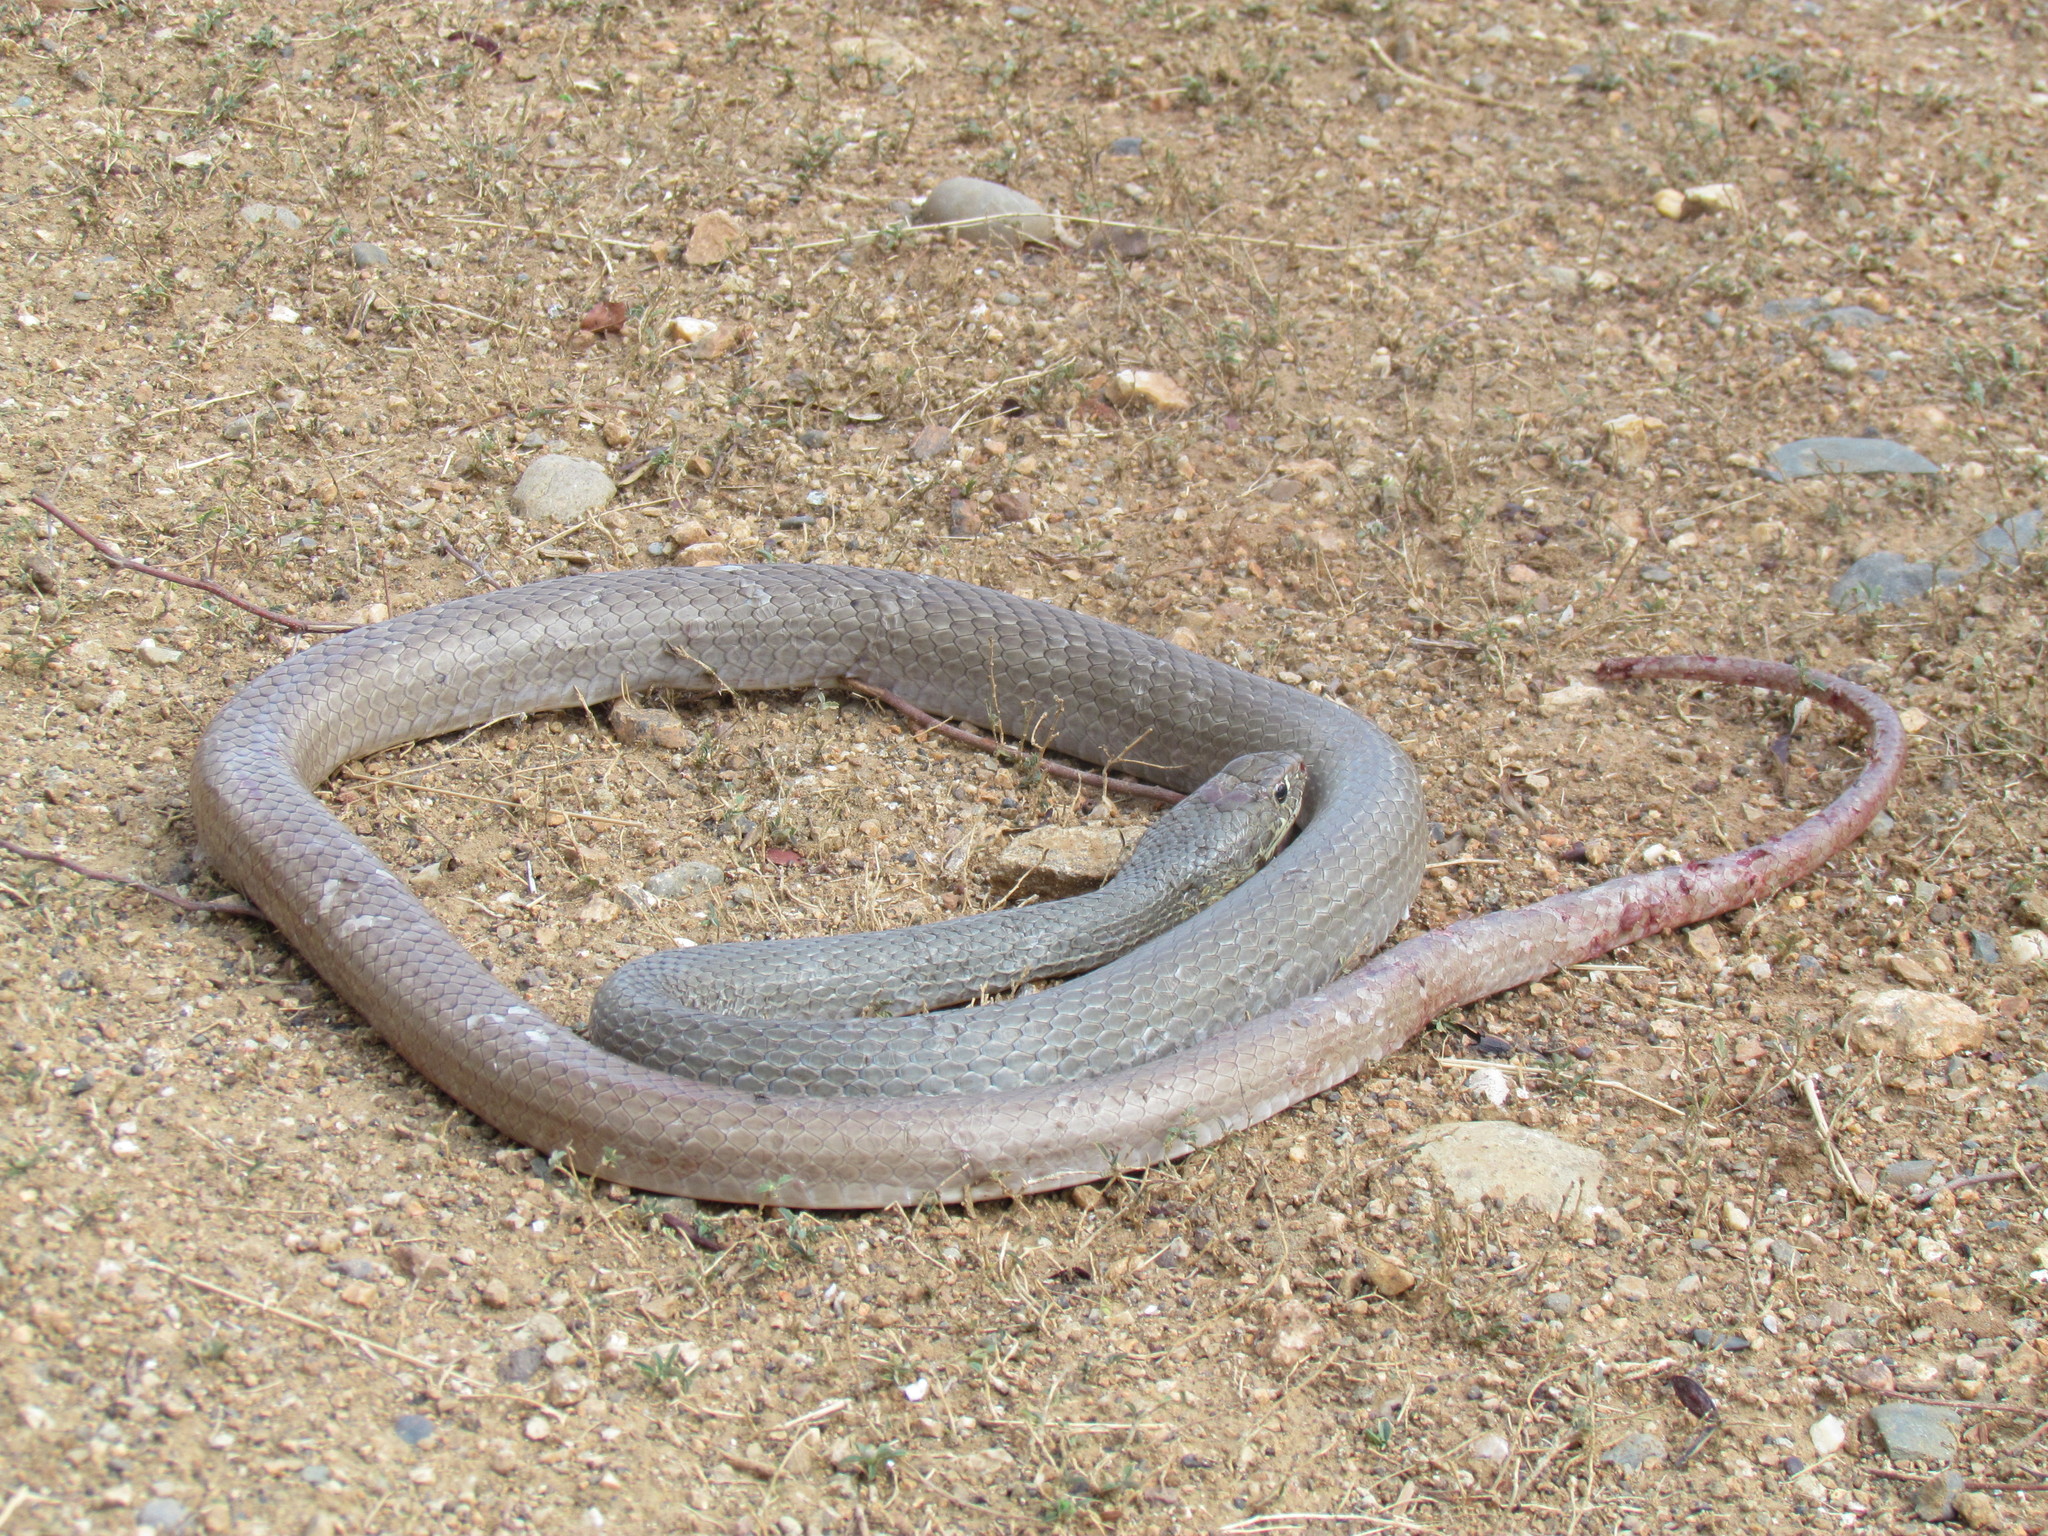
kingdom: Animalia
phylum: Chordata
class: Squamata
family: Colubridae
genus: Masticophis
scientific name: Masticophis mentovarius
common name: Neotropical whip snake
